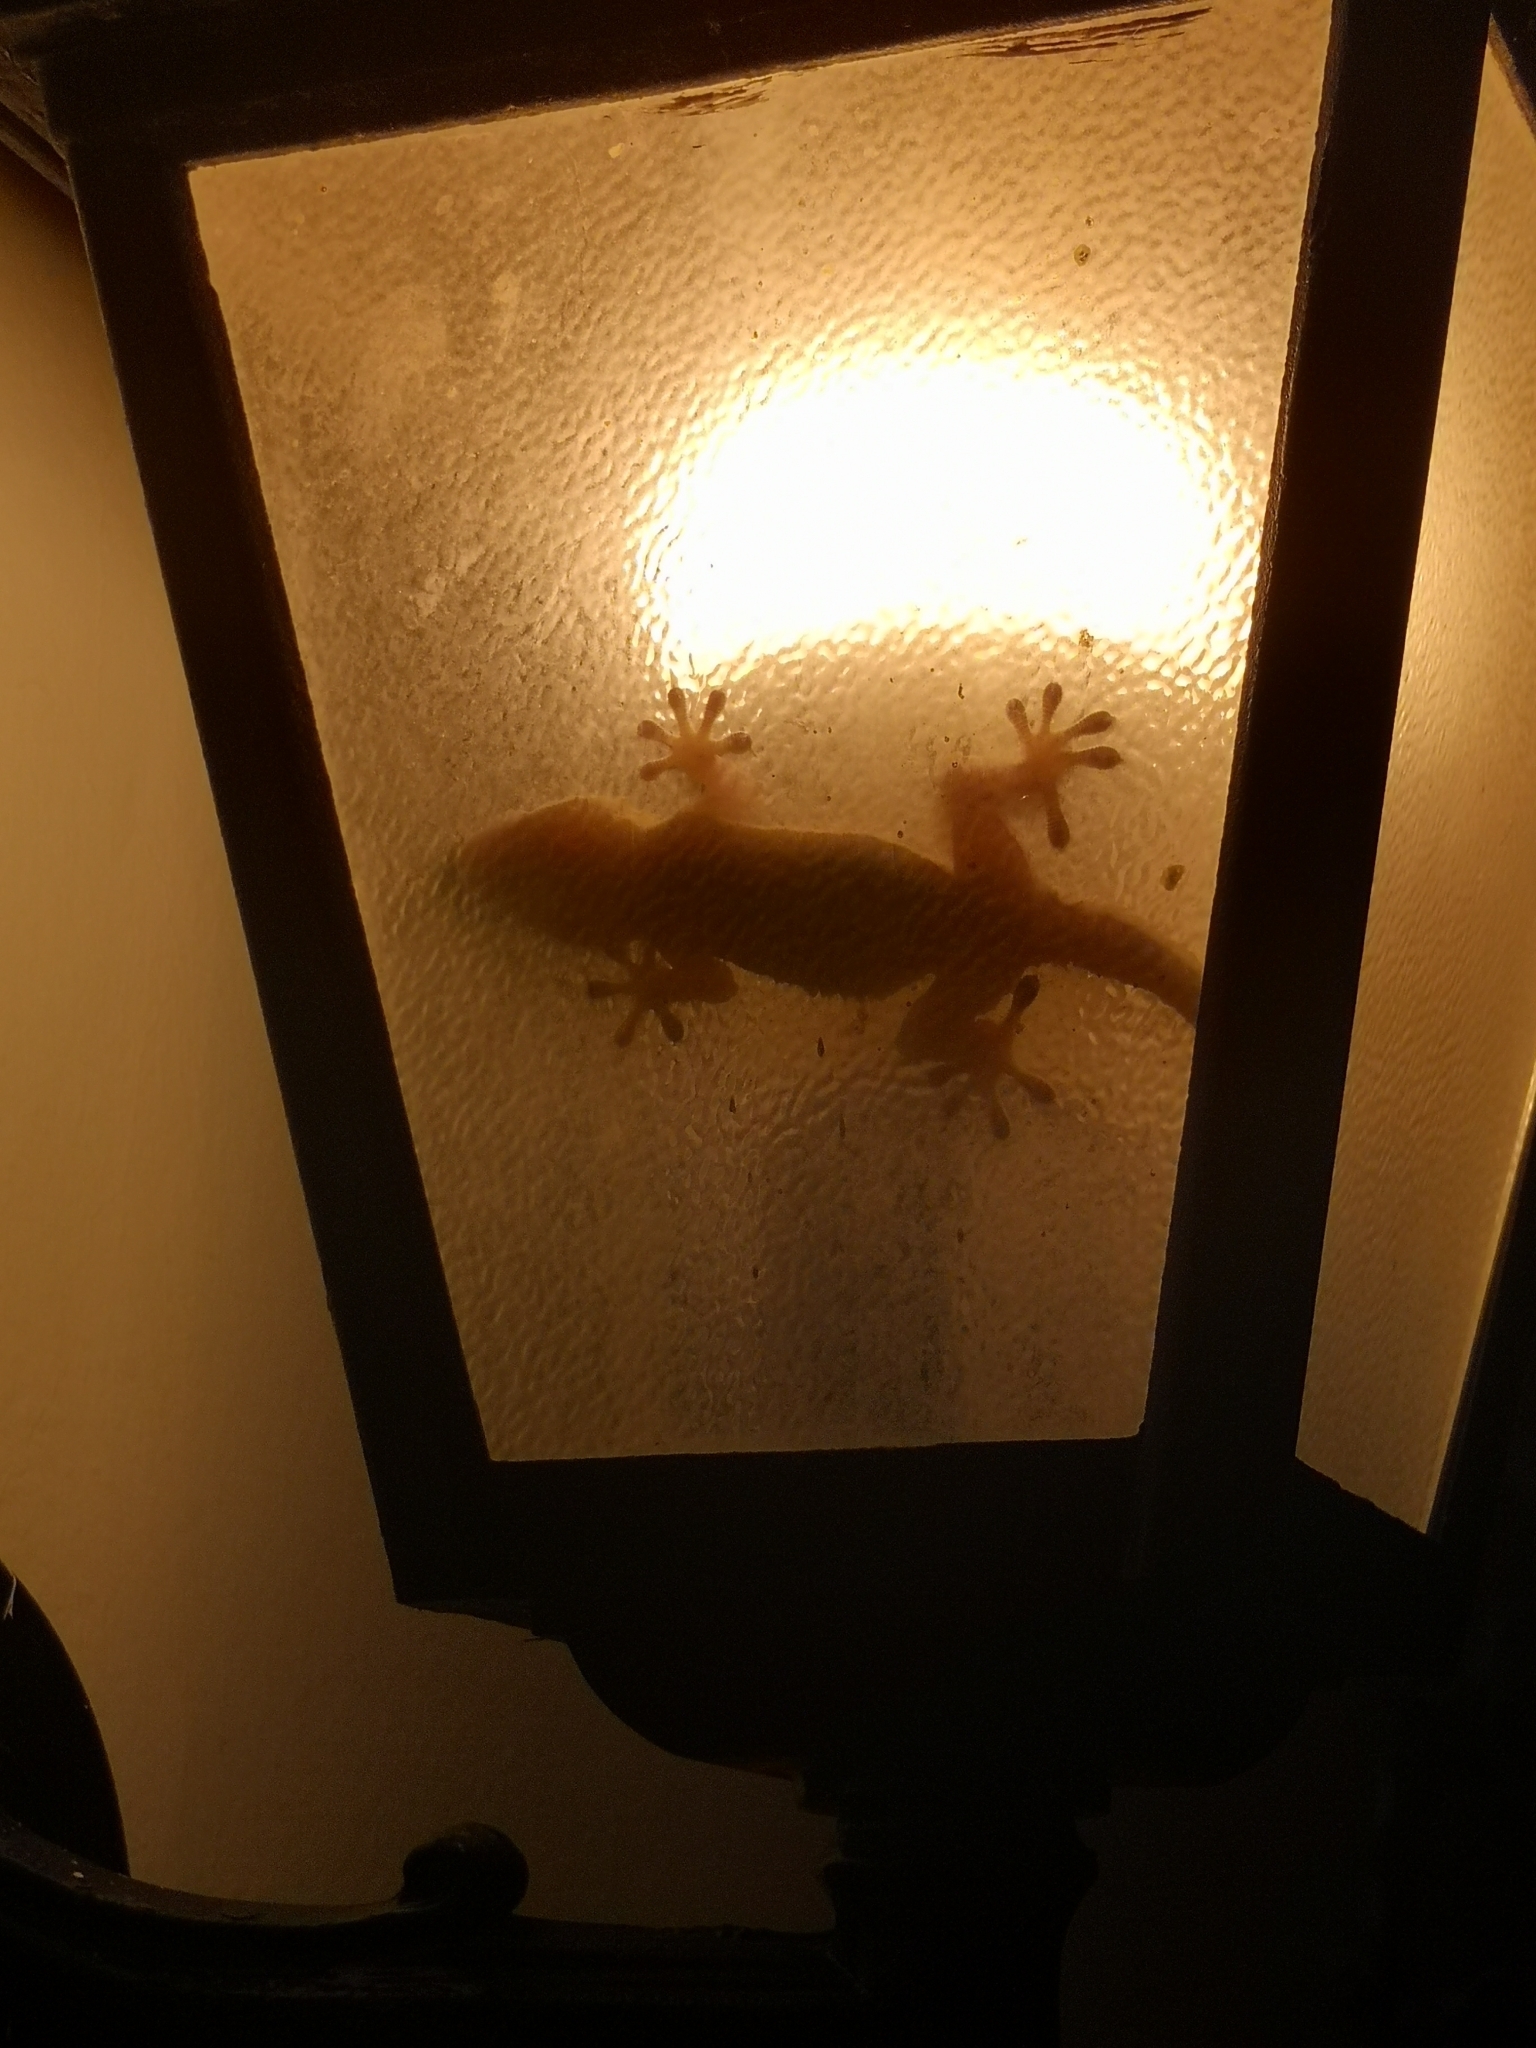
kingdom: Animalia
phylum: Chordata
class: Squamata
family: Phyllodactylidae
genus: Tarentola
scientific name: Tarentola mauritanica
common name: Moorish gecko
